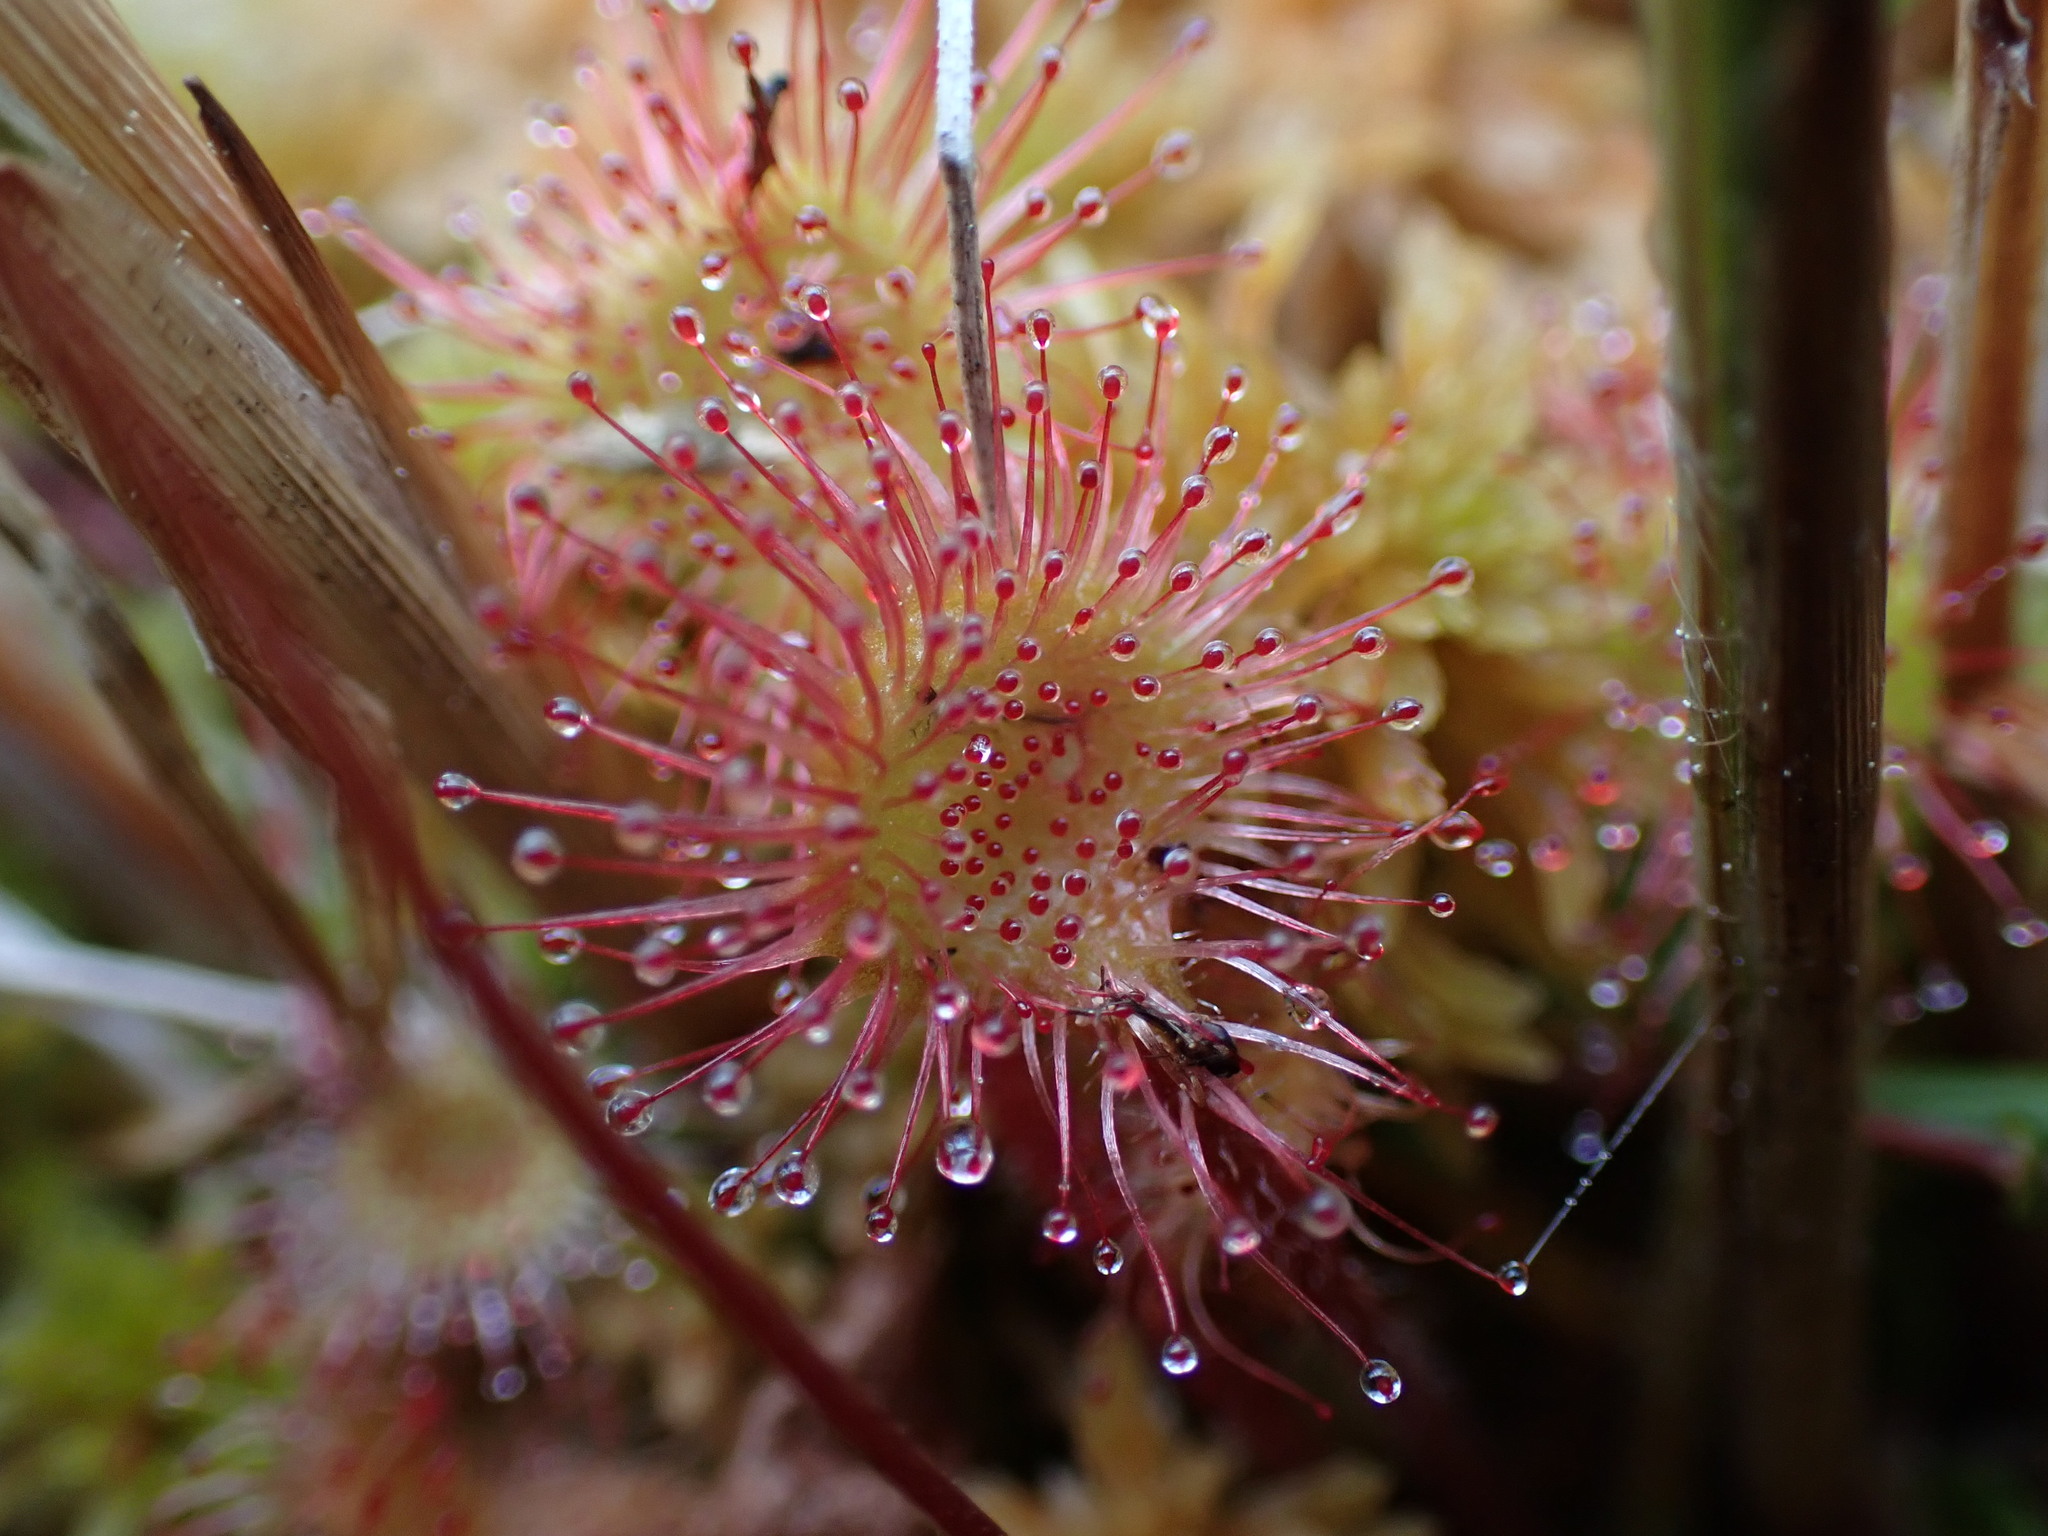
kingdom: Plantae
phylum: Tracheophyta
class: Magnoliopsida
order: Caryophyllales
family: Droseraceae
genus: Drosera
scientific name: Drosera rotundifolia
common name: Round-leaved sundew
